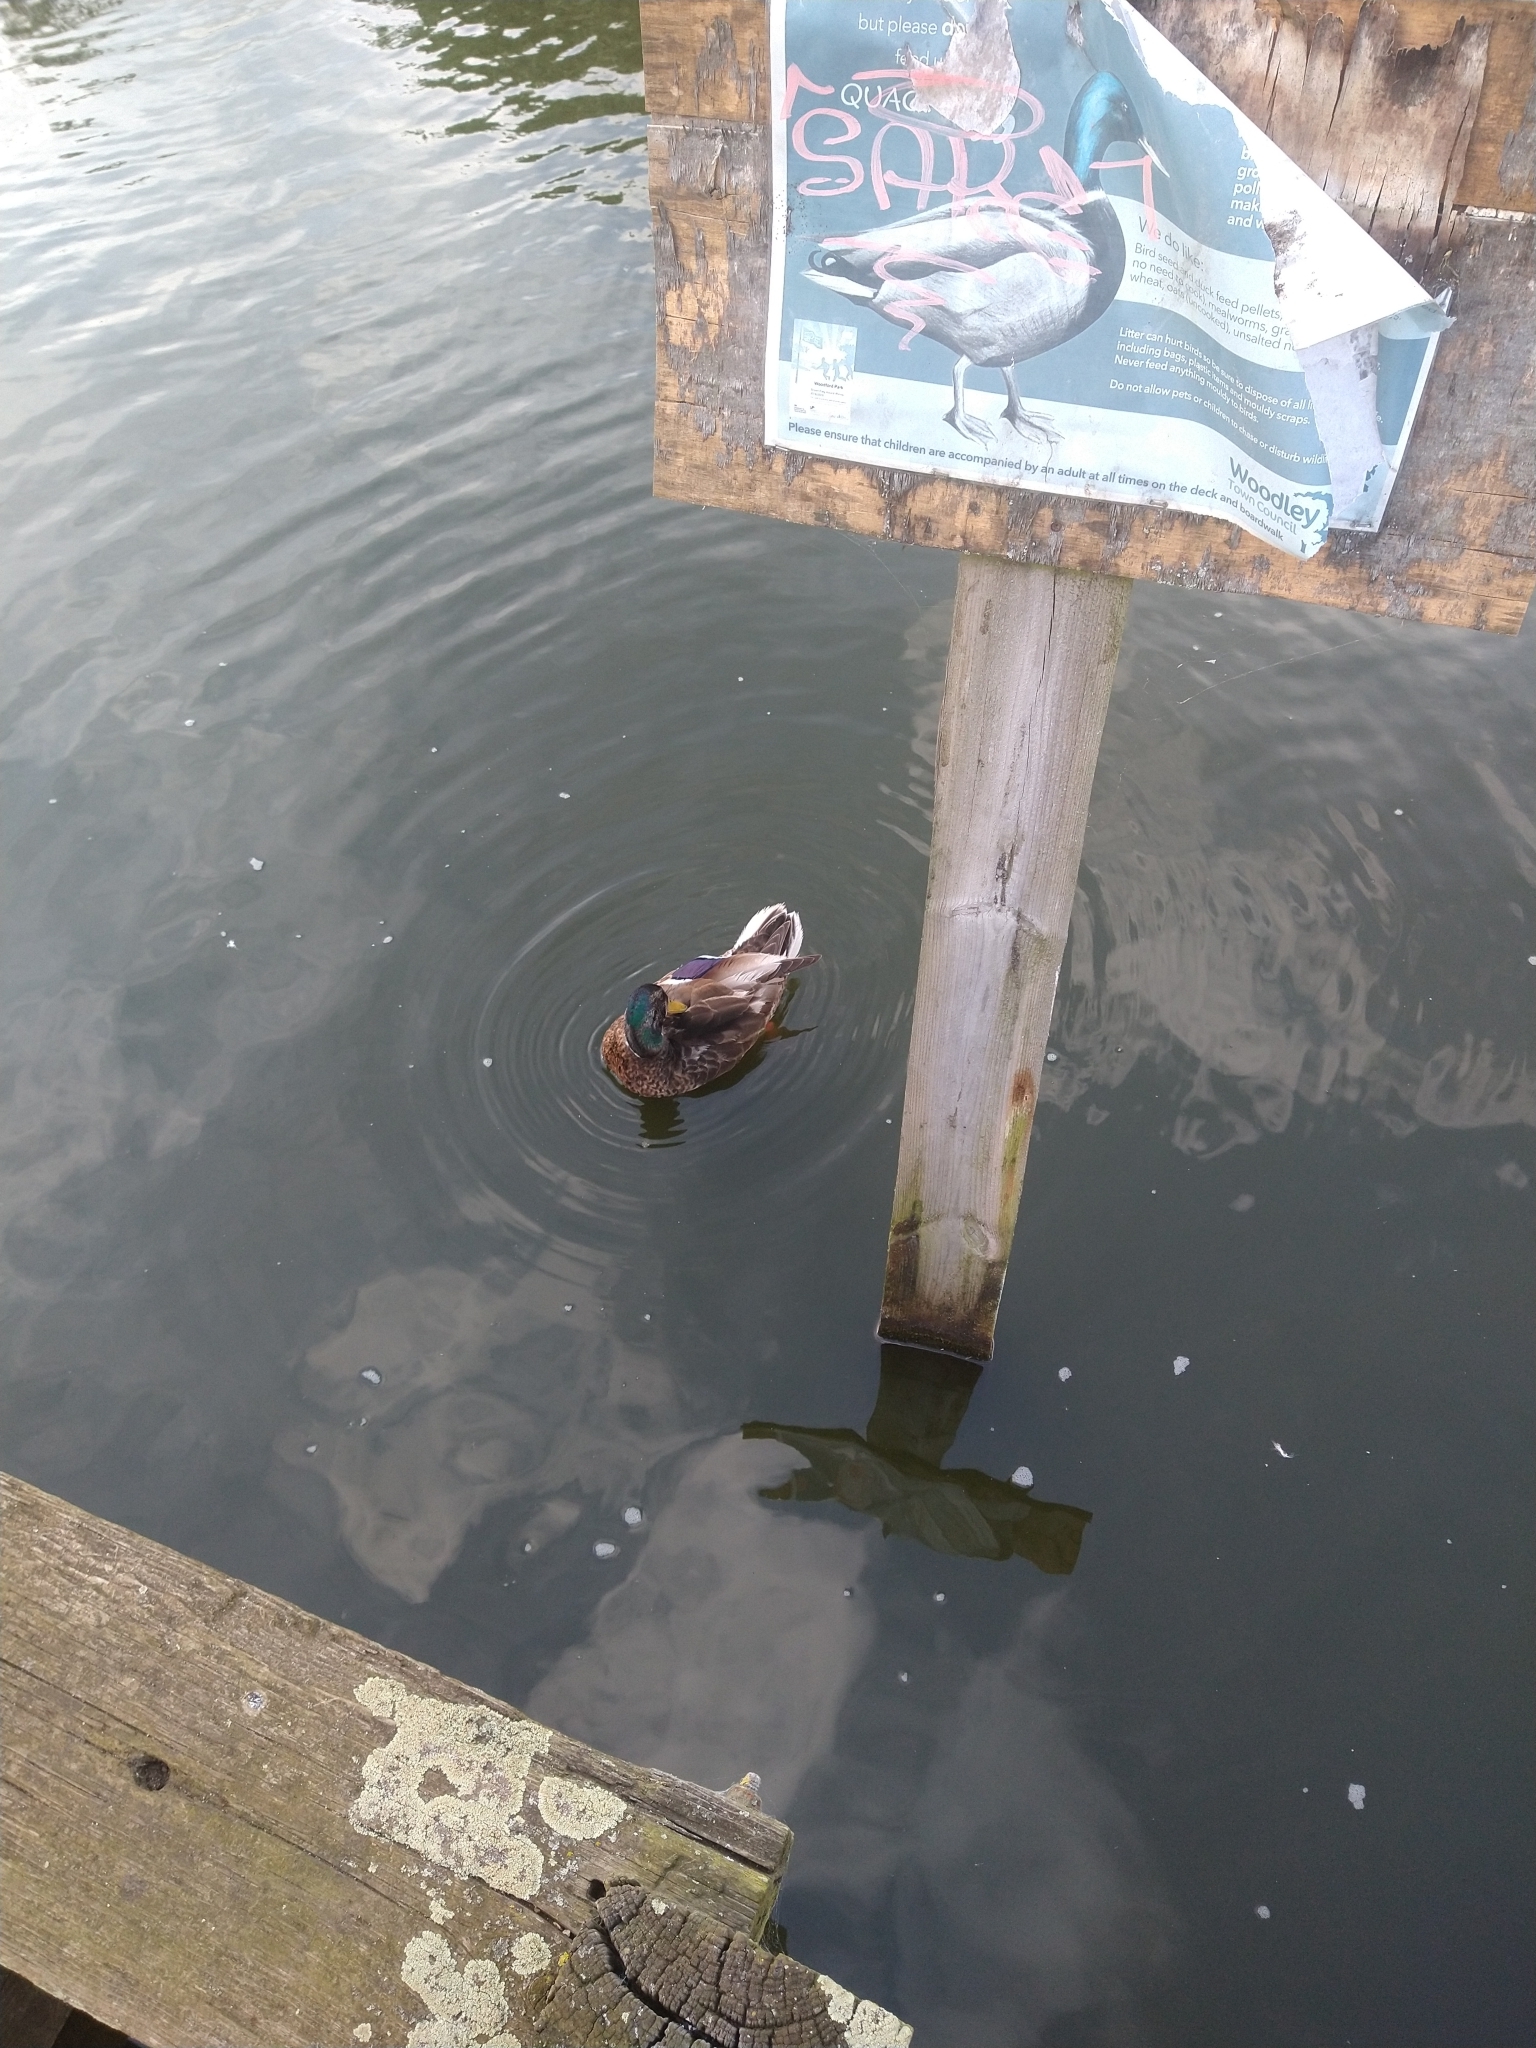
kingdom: Animalia
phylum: Chordata
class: Aves
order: Anseriformes
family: Anatidae
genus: Anas
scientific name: Anas platyrhynchos
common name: Mallard
